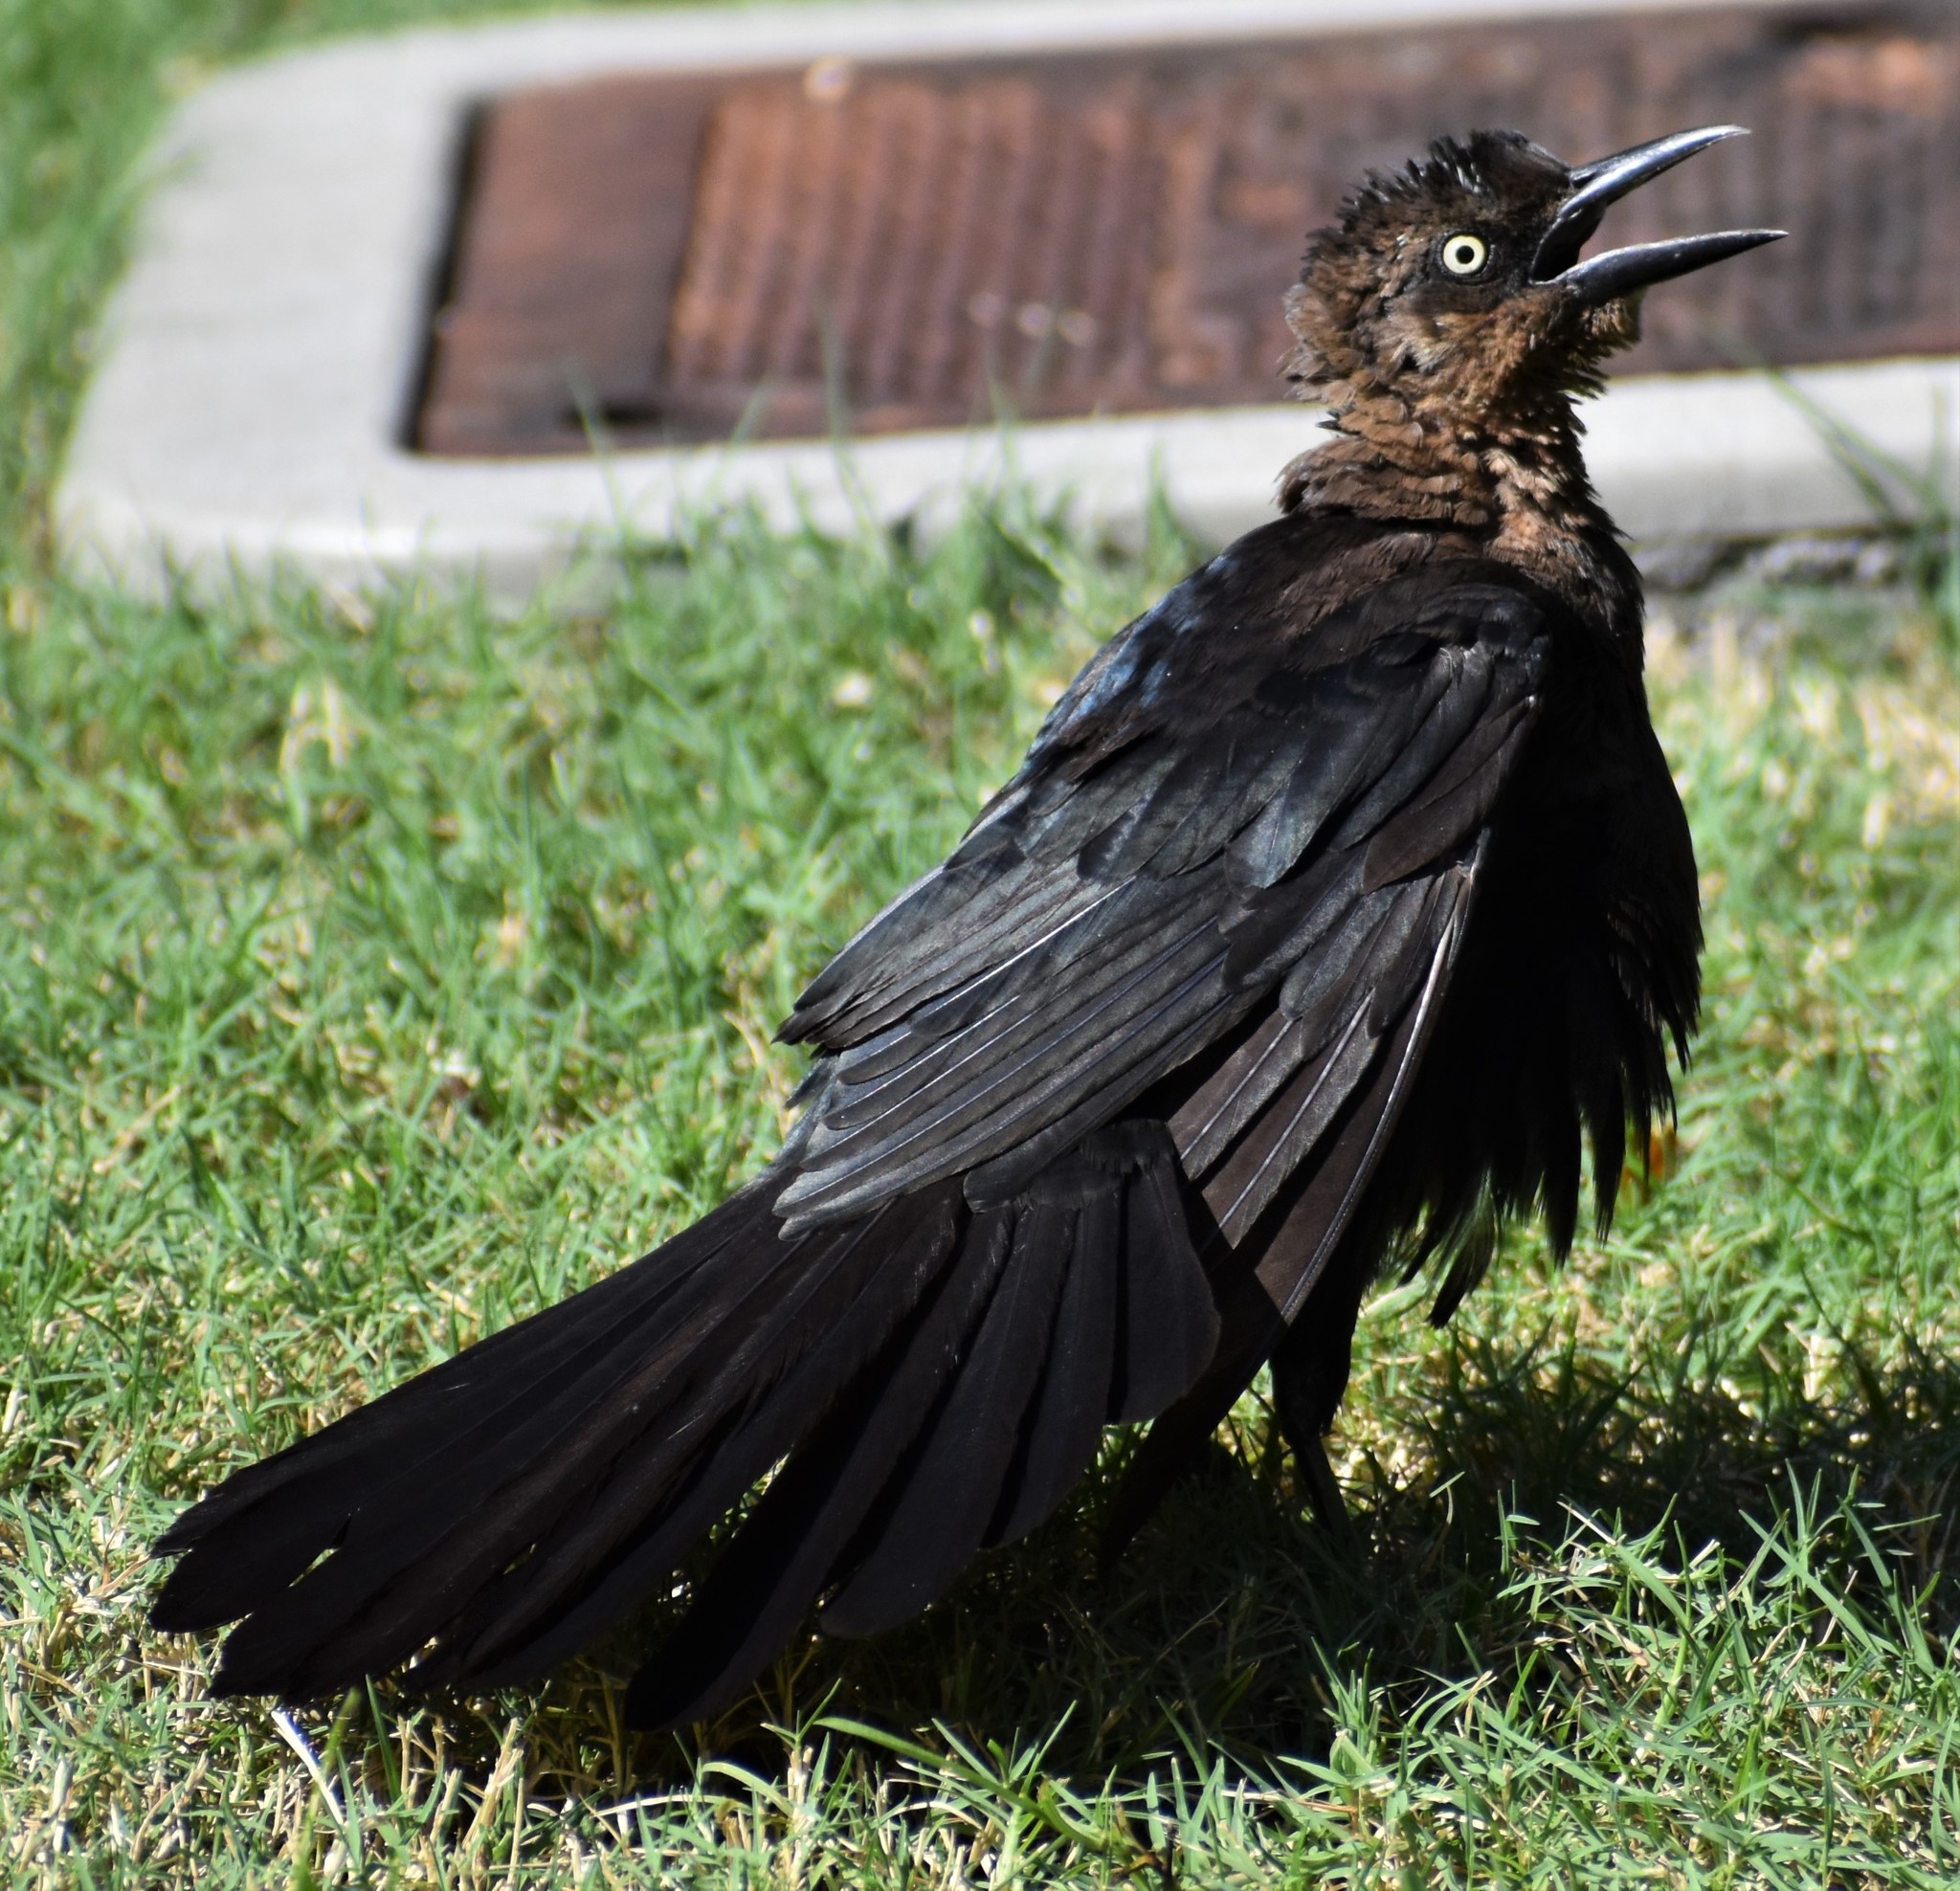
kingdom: Animalia
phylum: Chordata
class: Aves
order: Passeriformes
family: Icteridae
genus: Quiscalus
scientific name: Quiscalus mexicanus
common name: Great-tailed grackle
